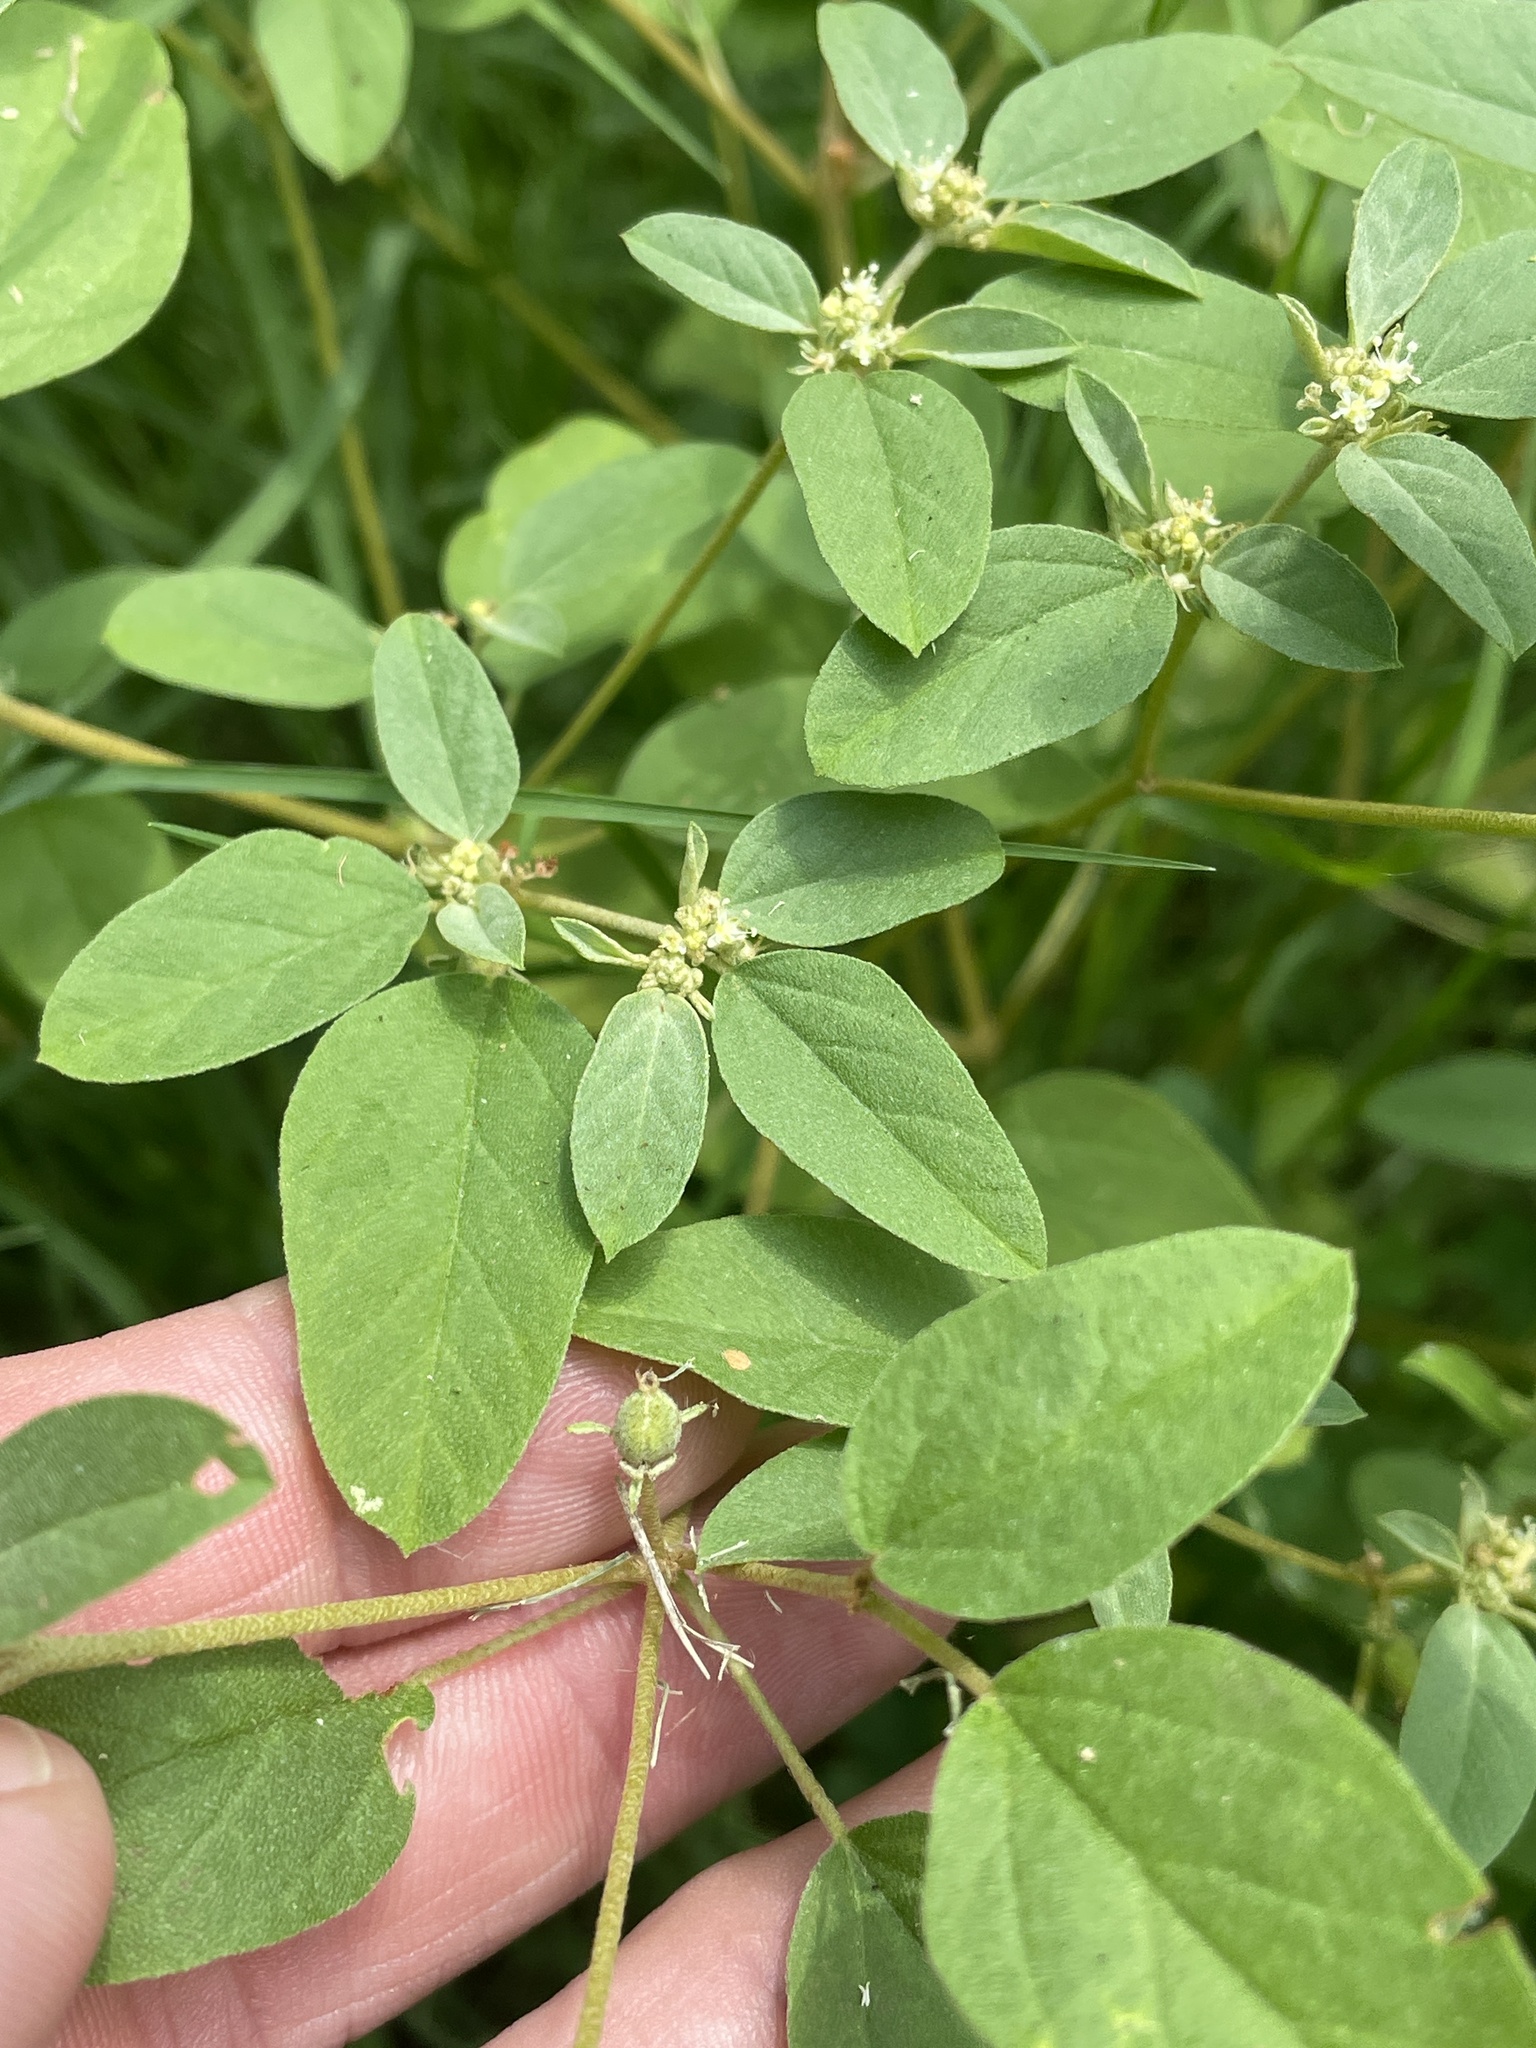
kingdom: Plantae
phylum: Tracheophyta
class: Magnoliopsida
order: Malpighiales
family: Euphorbiaceae
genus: Croton
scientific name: Croton monanthogynus
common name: One-seed croton
